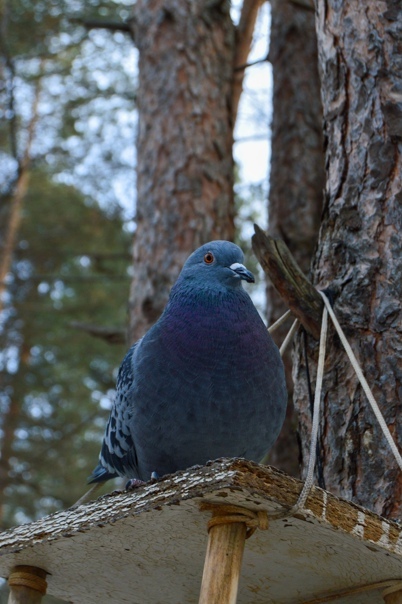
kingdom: Animalia
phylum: Chordata
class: Aves
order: Columbiformes
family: Columbidae
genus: Columba
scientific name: Columba livia
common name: Rock pigeon
